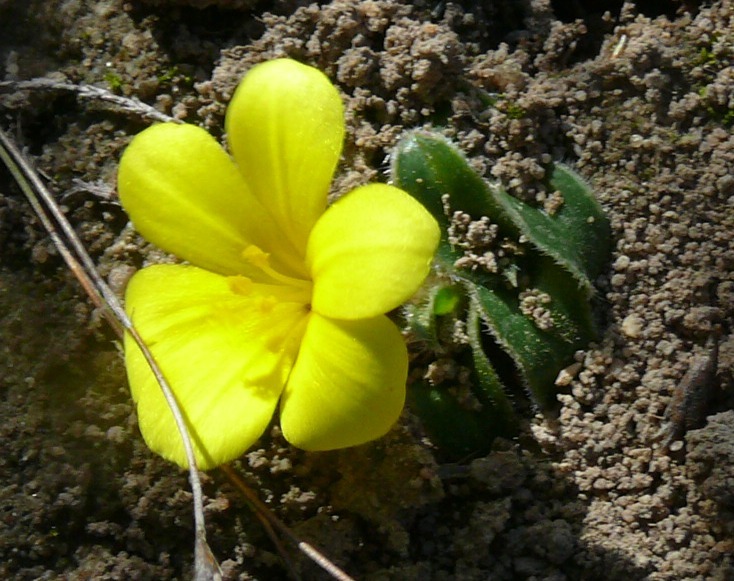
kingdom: Plantae
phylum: Tracheophyta
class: Liliopsida
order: Asparagales
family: Iridaceae
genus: Moraea
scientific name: Moraea luteoalba
